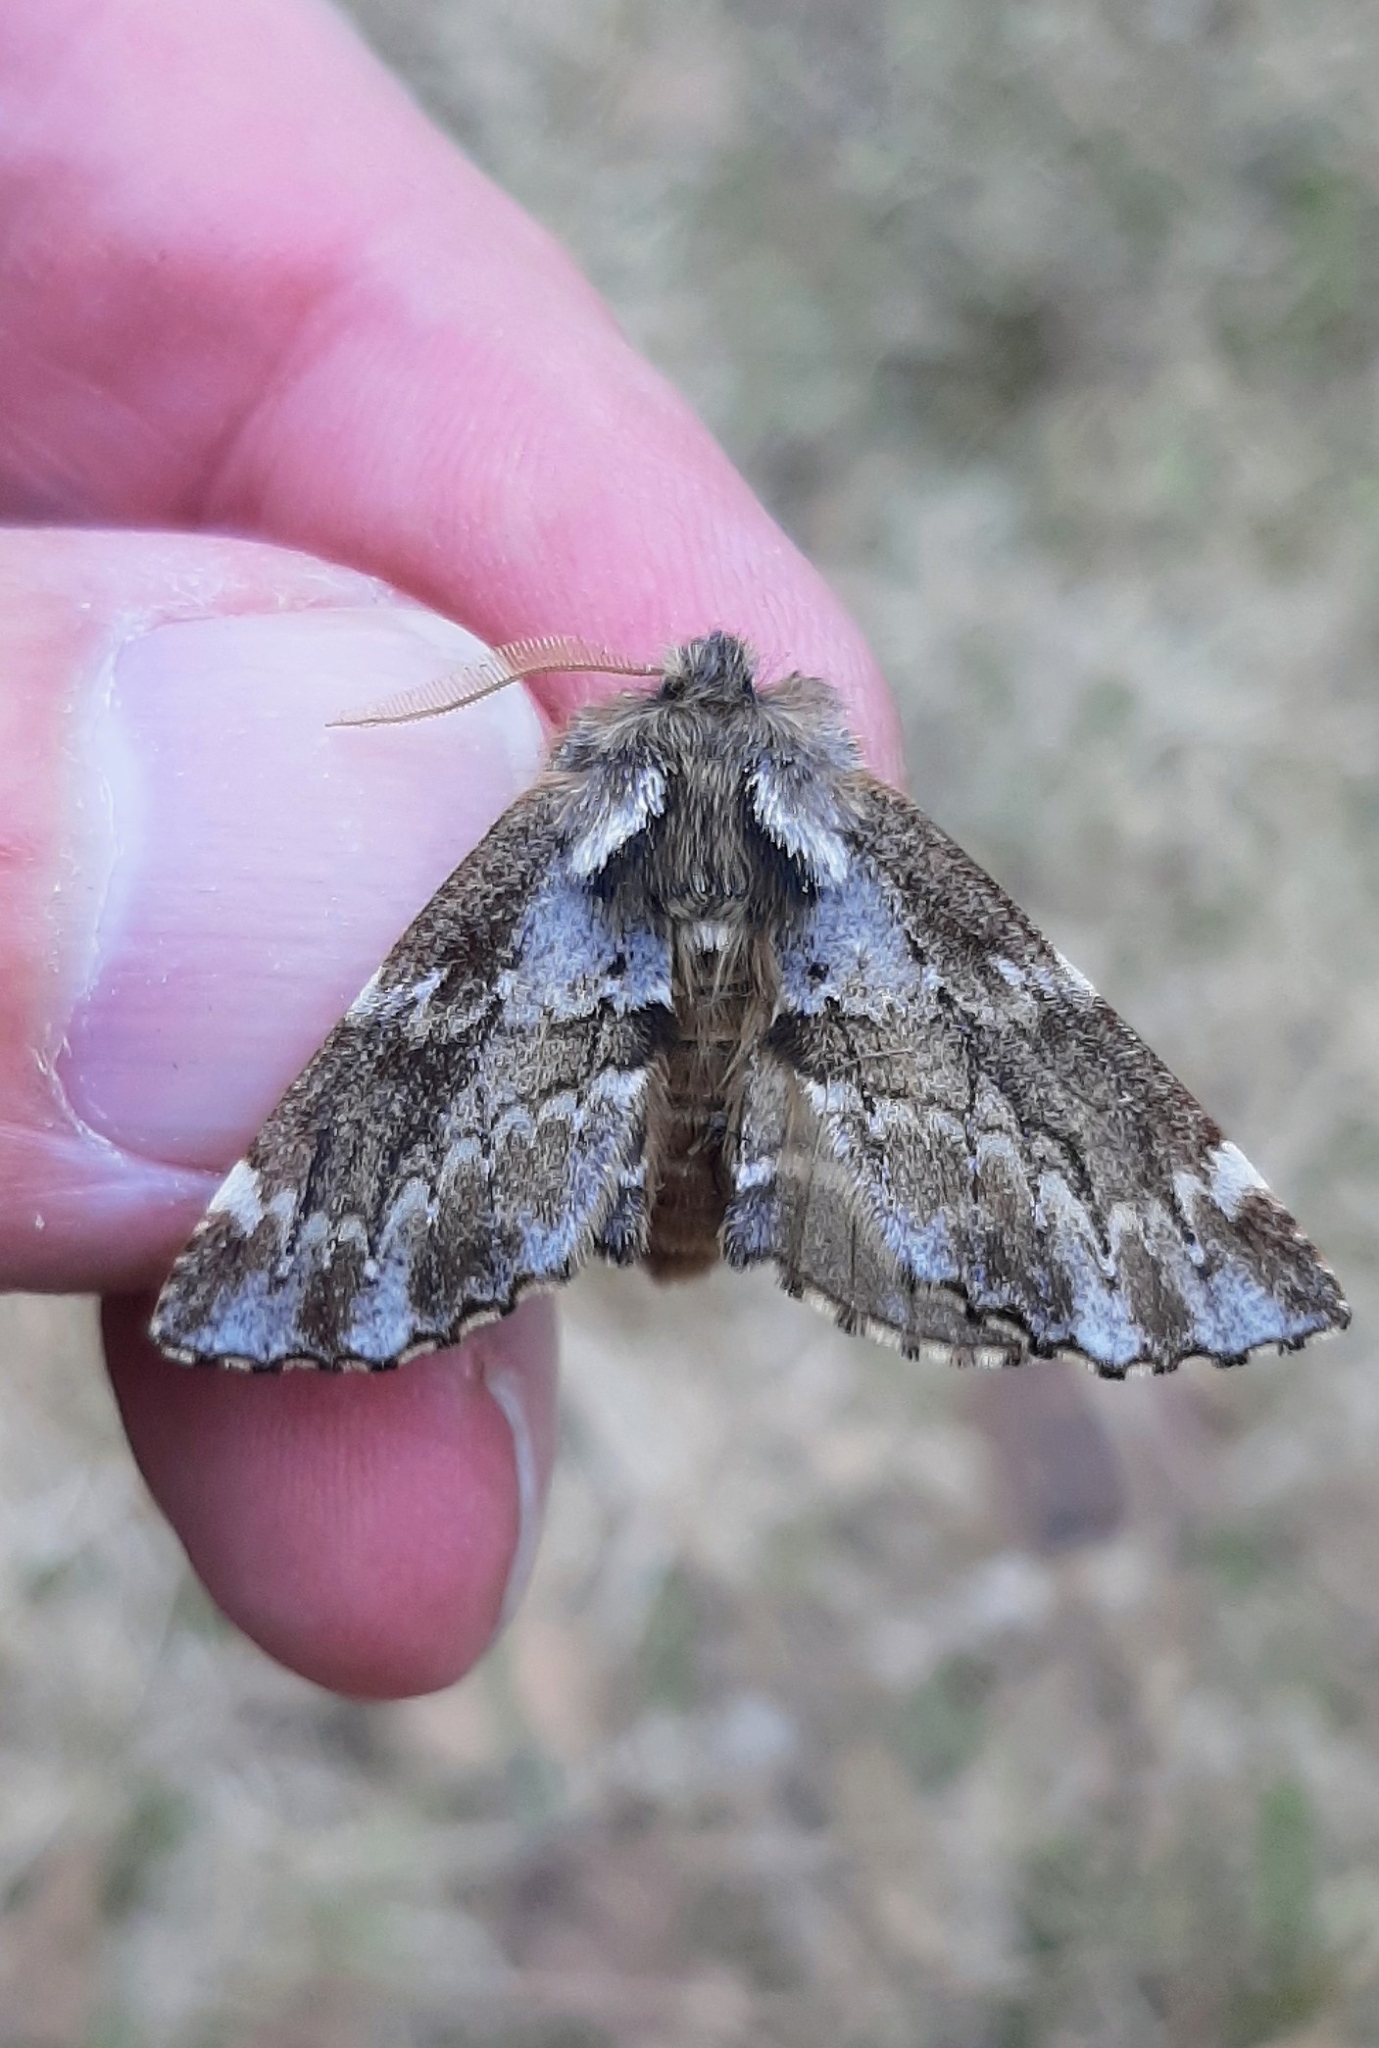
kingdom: Animalia
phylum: Arthropoda
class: Insecta
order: Lepidoptera
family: Notodontidae
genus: Odontosia
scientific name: Odontosia sieversii
